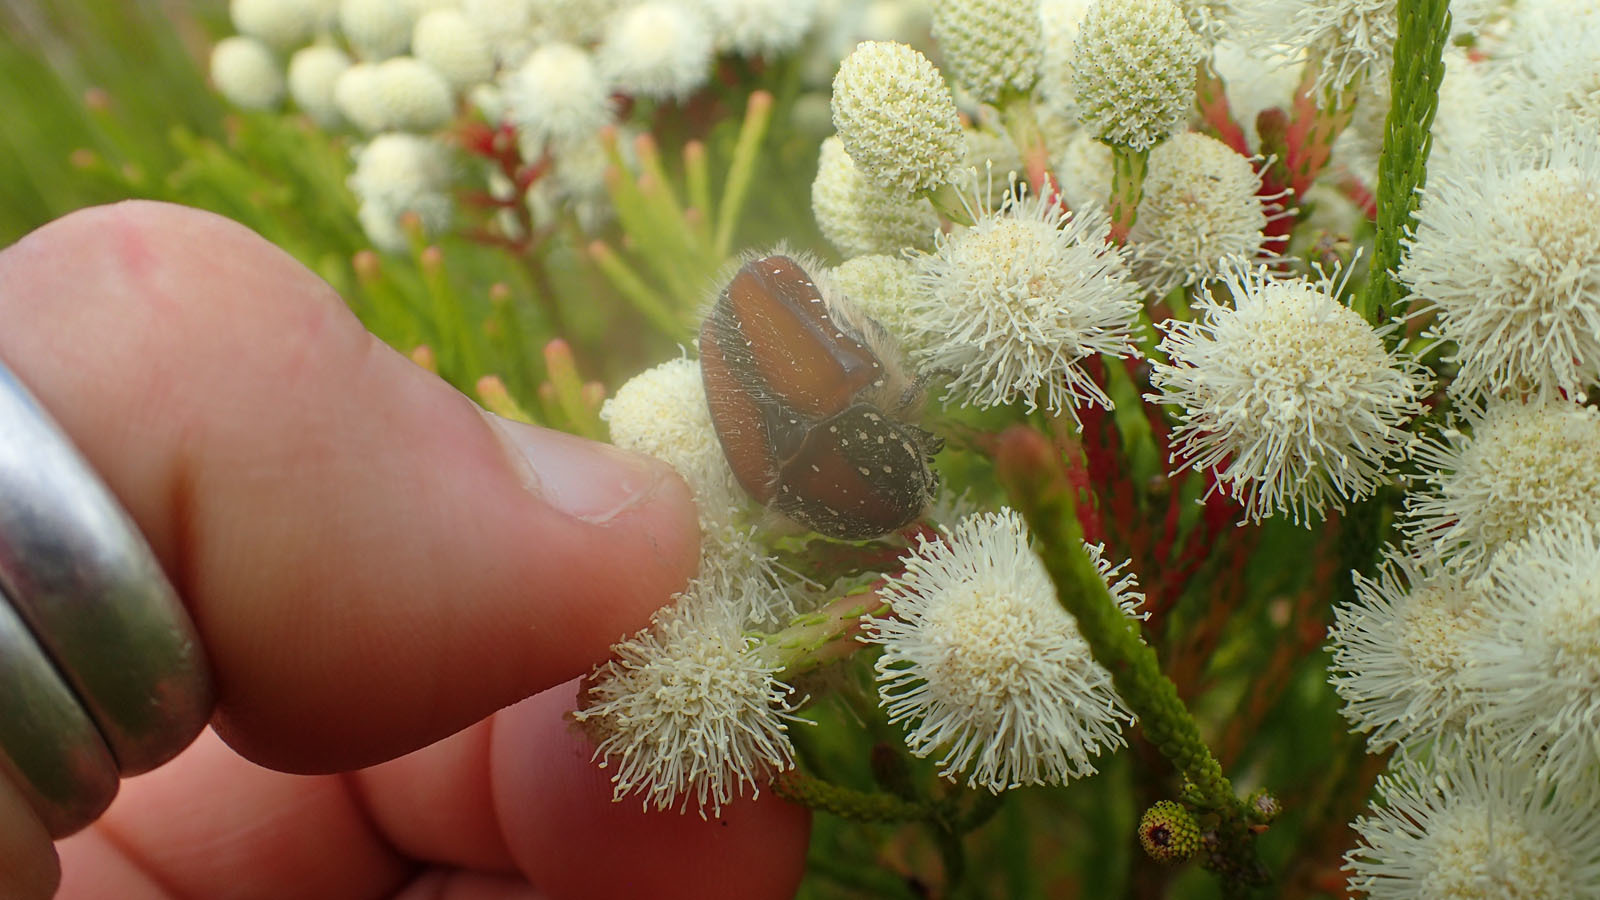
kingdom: Animalia
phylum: Arthropoda
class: Insecta
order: Coleoptera
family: Scarabaeidae
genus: Trichostetha
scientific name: Trichostetha capensis
